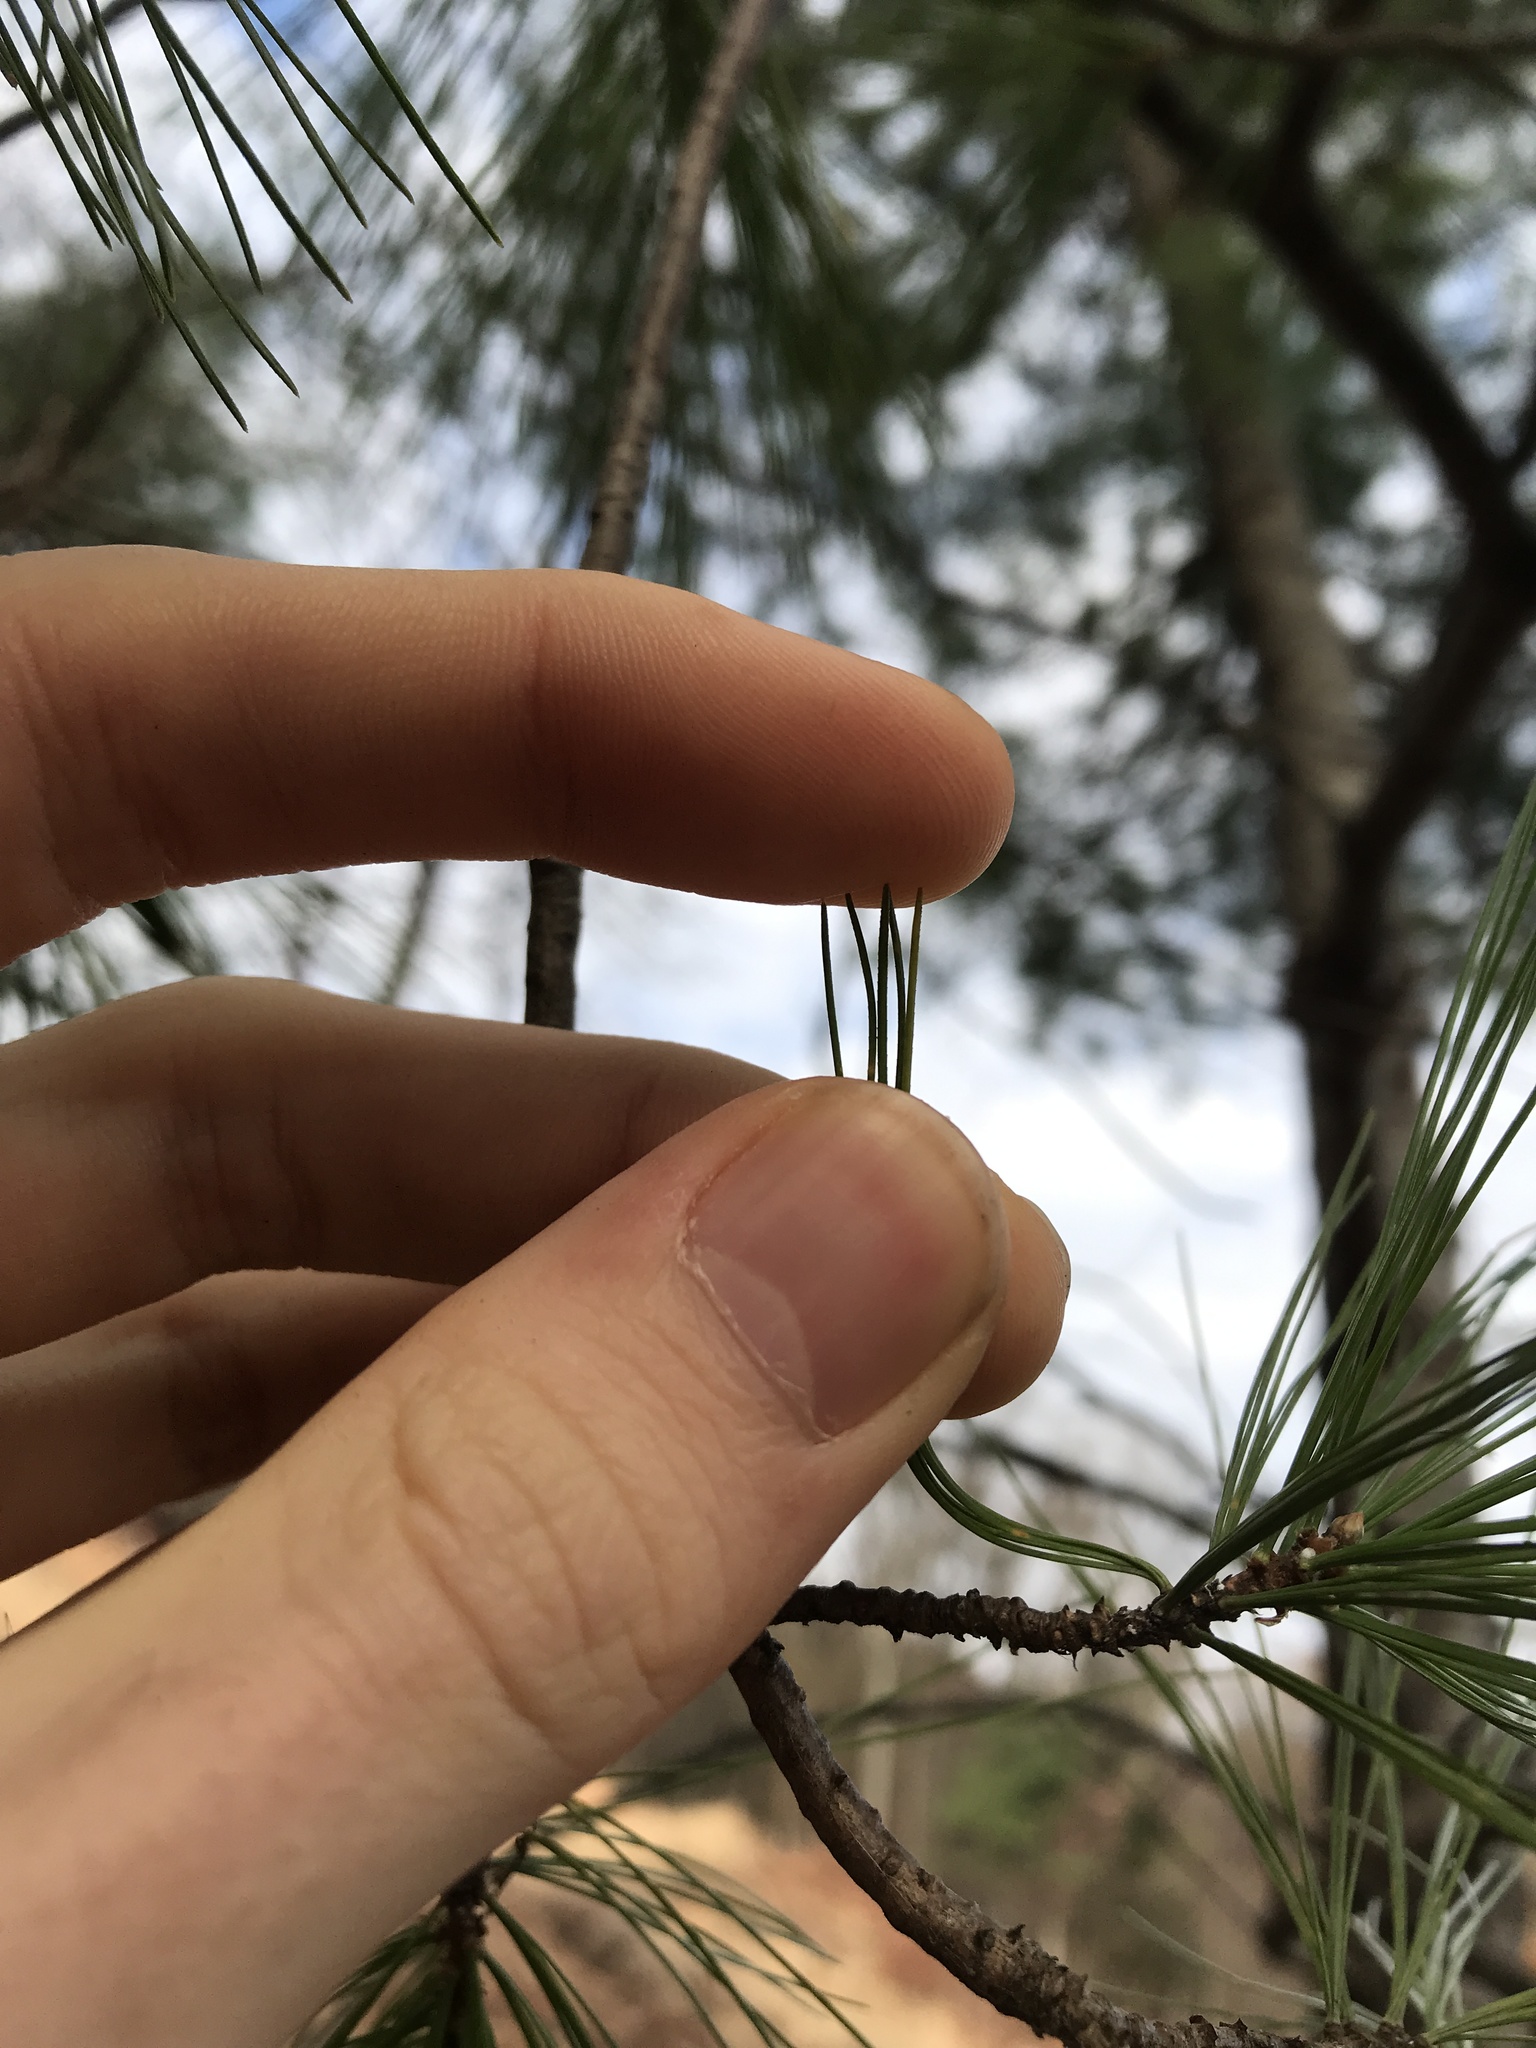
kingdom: Plantae
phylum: Tracheophyta
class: Pinopsida
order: Pinales
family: Pinaceae
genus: Pinus
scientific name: Pinus strobus
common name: Weymouth pine
